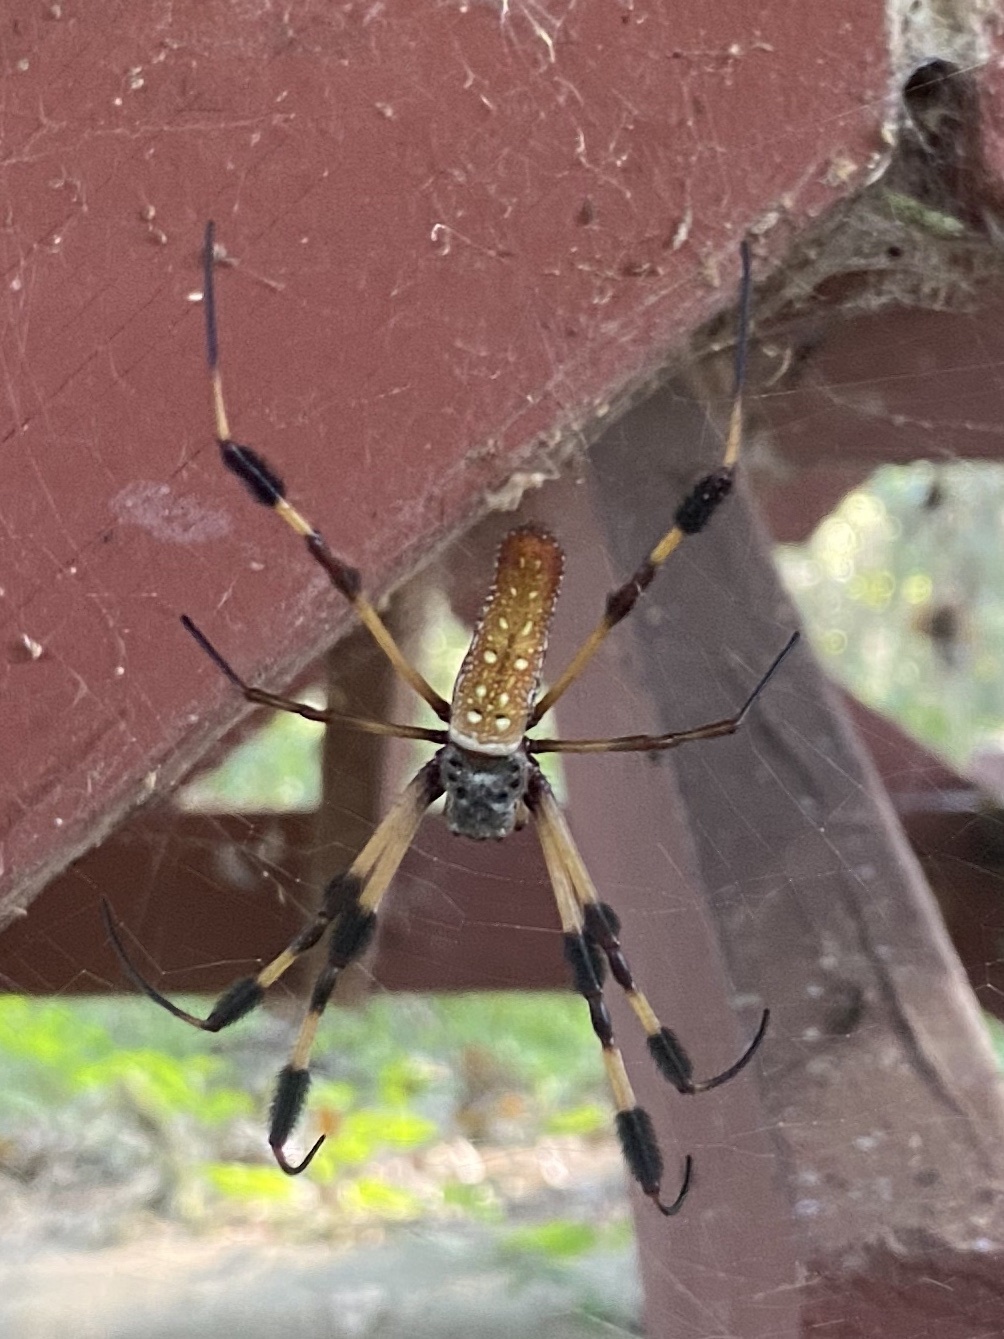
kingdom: Animalia
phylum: Arthropoda
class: Arachnida
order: Araneae
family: Araneidae
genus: Trichonephila
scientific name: Trichonephila clavipes
